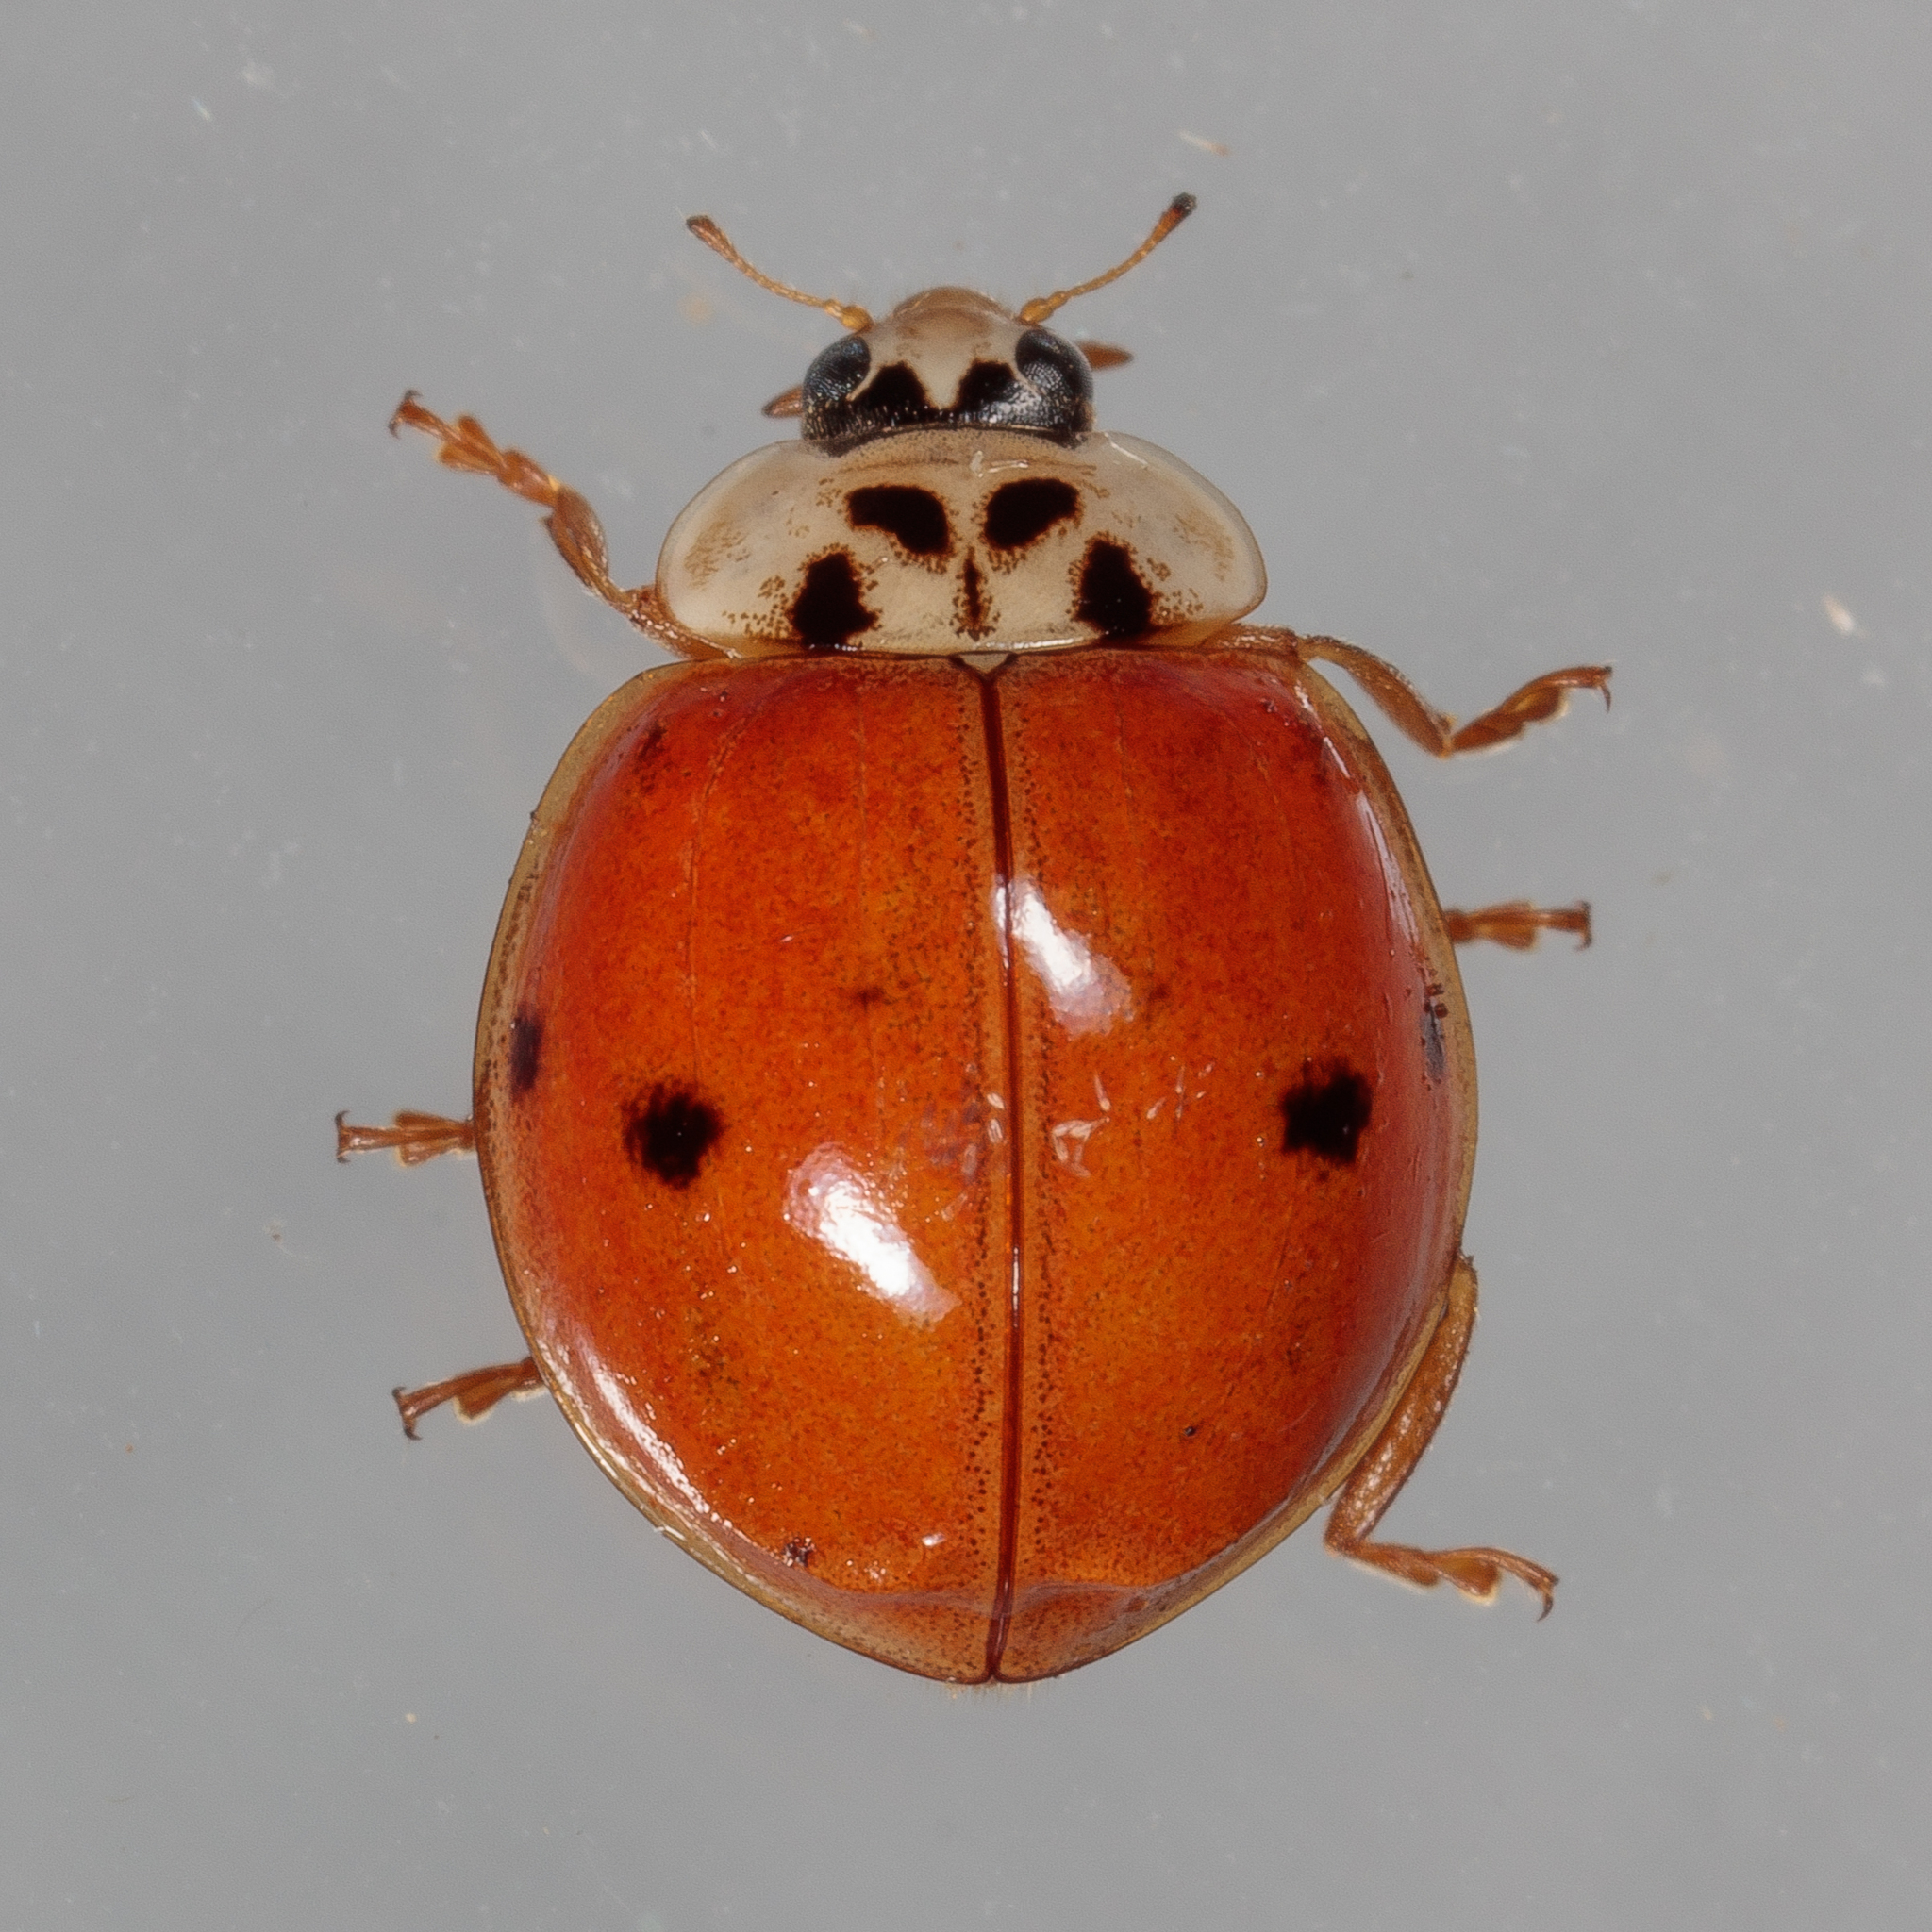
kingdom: Animalia
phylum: Arthropoda
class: Insecta
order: Coleoptera
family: Coccinellidae
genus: Harmonia
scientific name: Harmonia axyridis
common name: Harlequin ladybird
